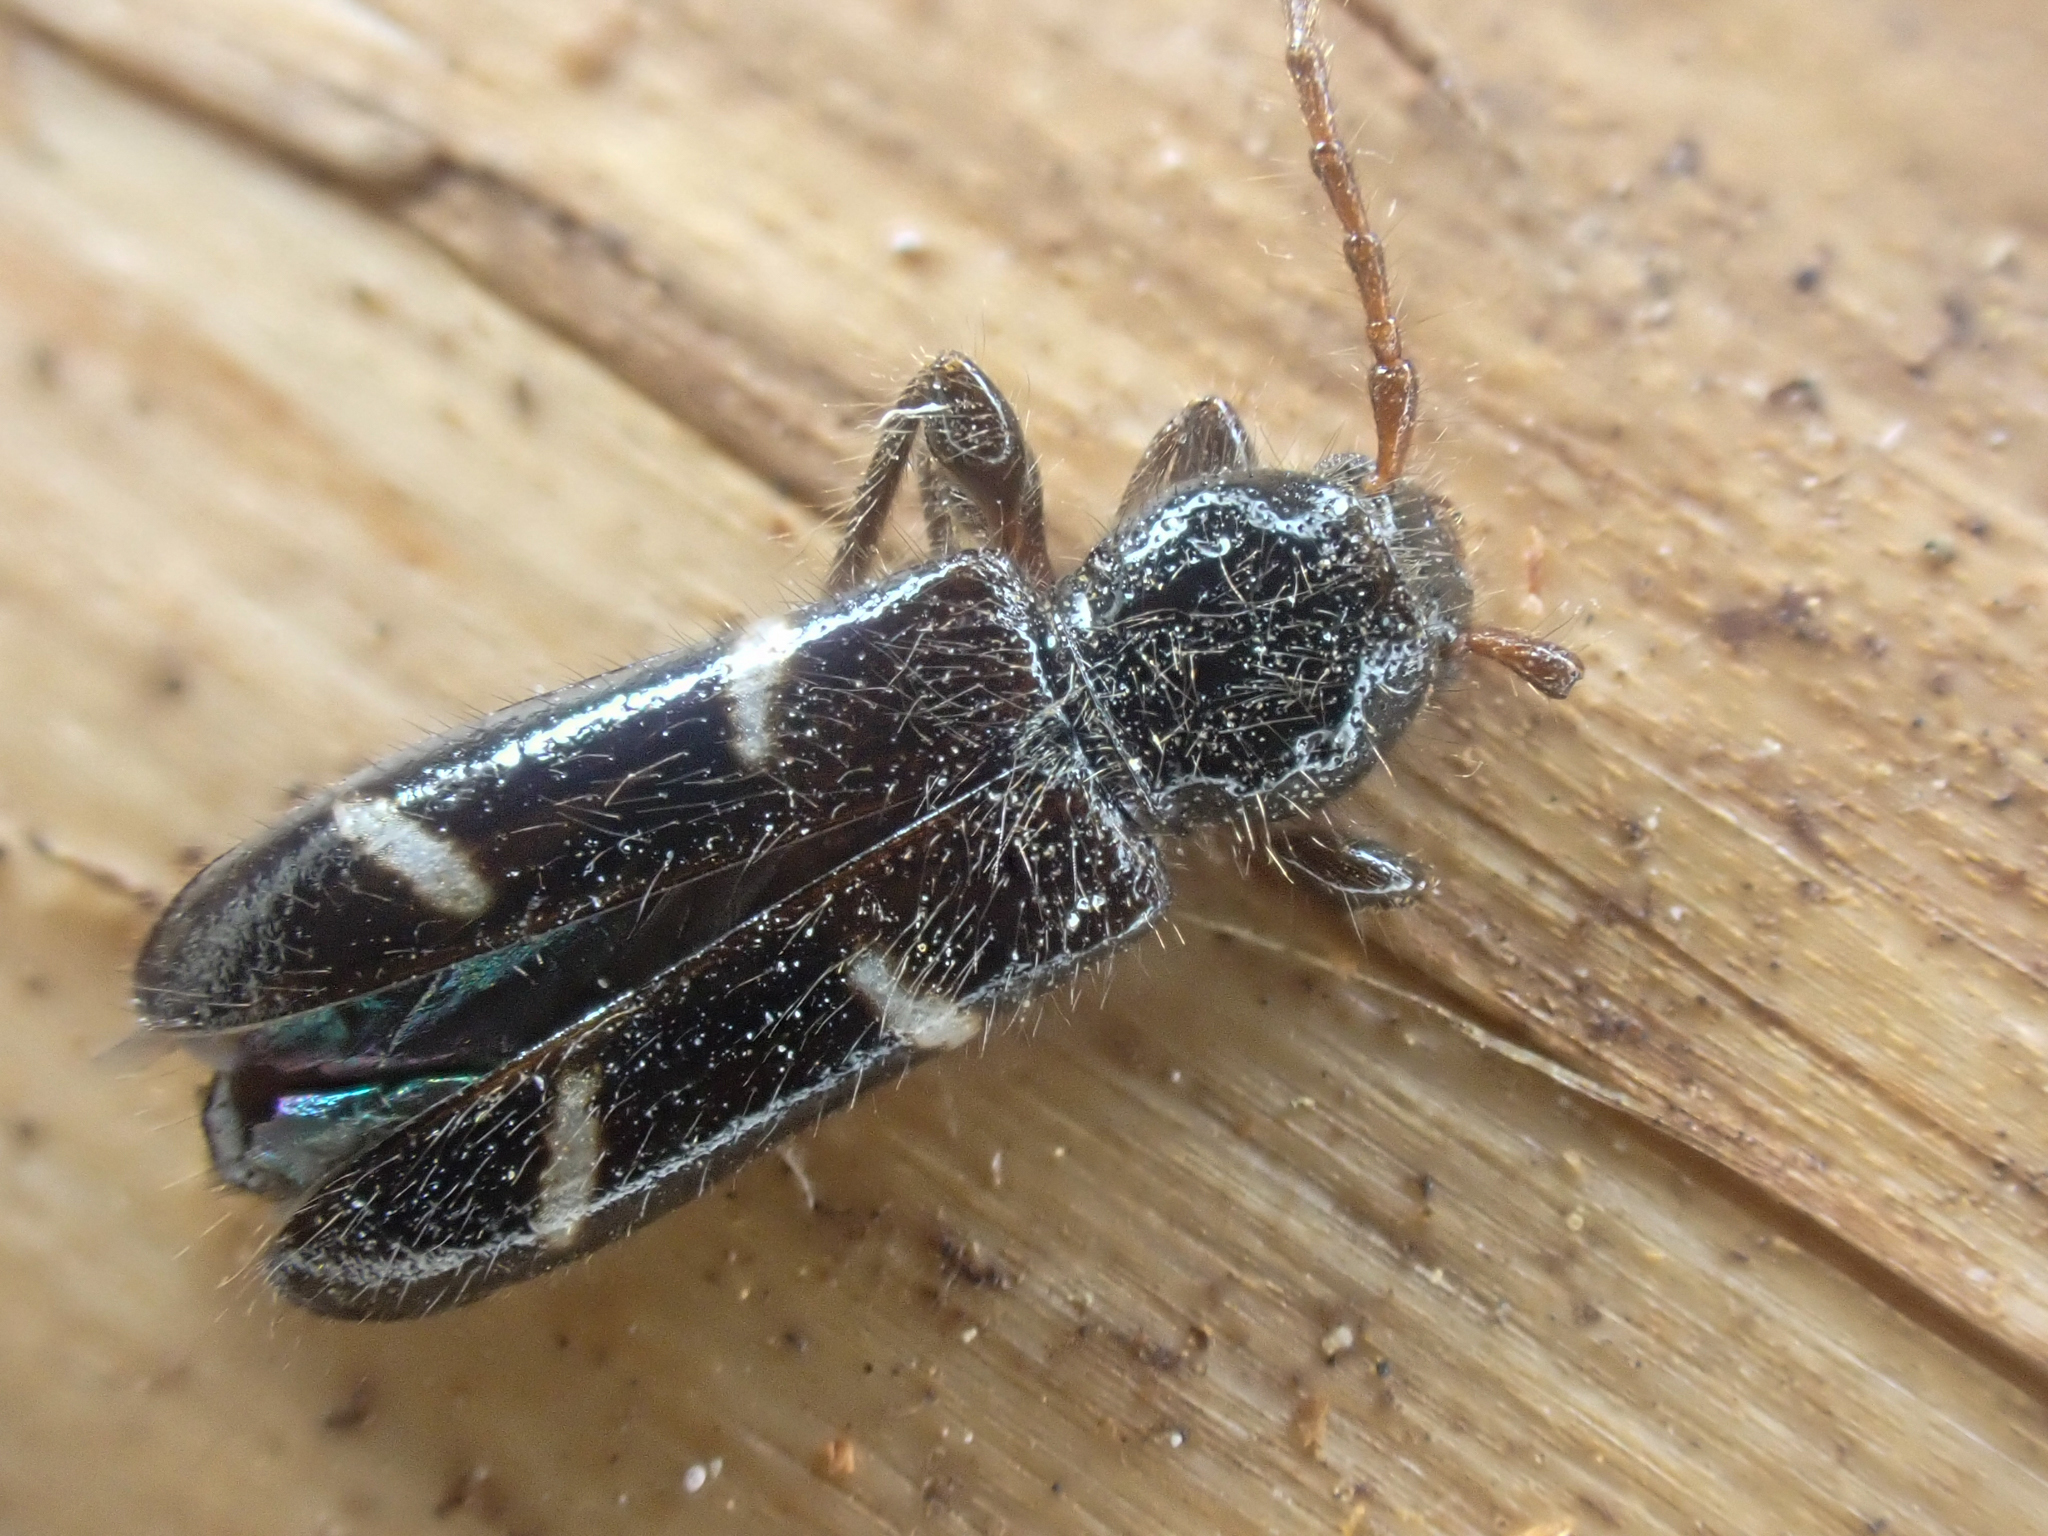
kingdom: Animalia
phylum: Arthropoda
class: Insecta
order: Coleoptera
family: Cerambycidae
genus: Phymatodes
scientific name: Phymatodes nitidus
